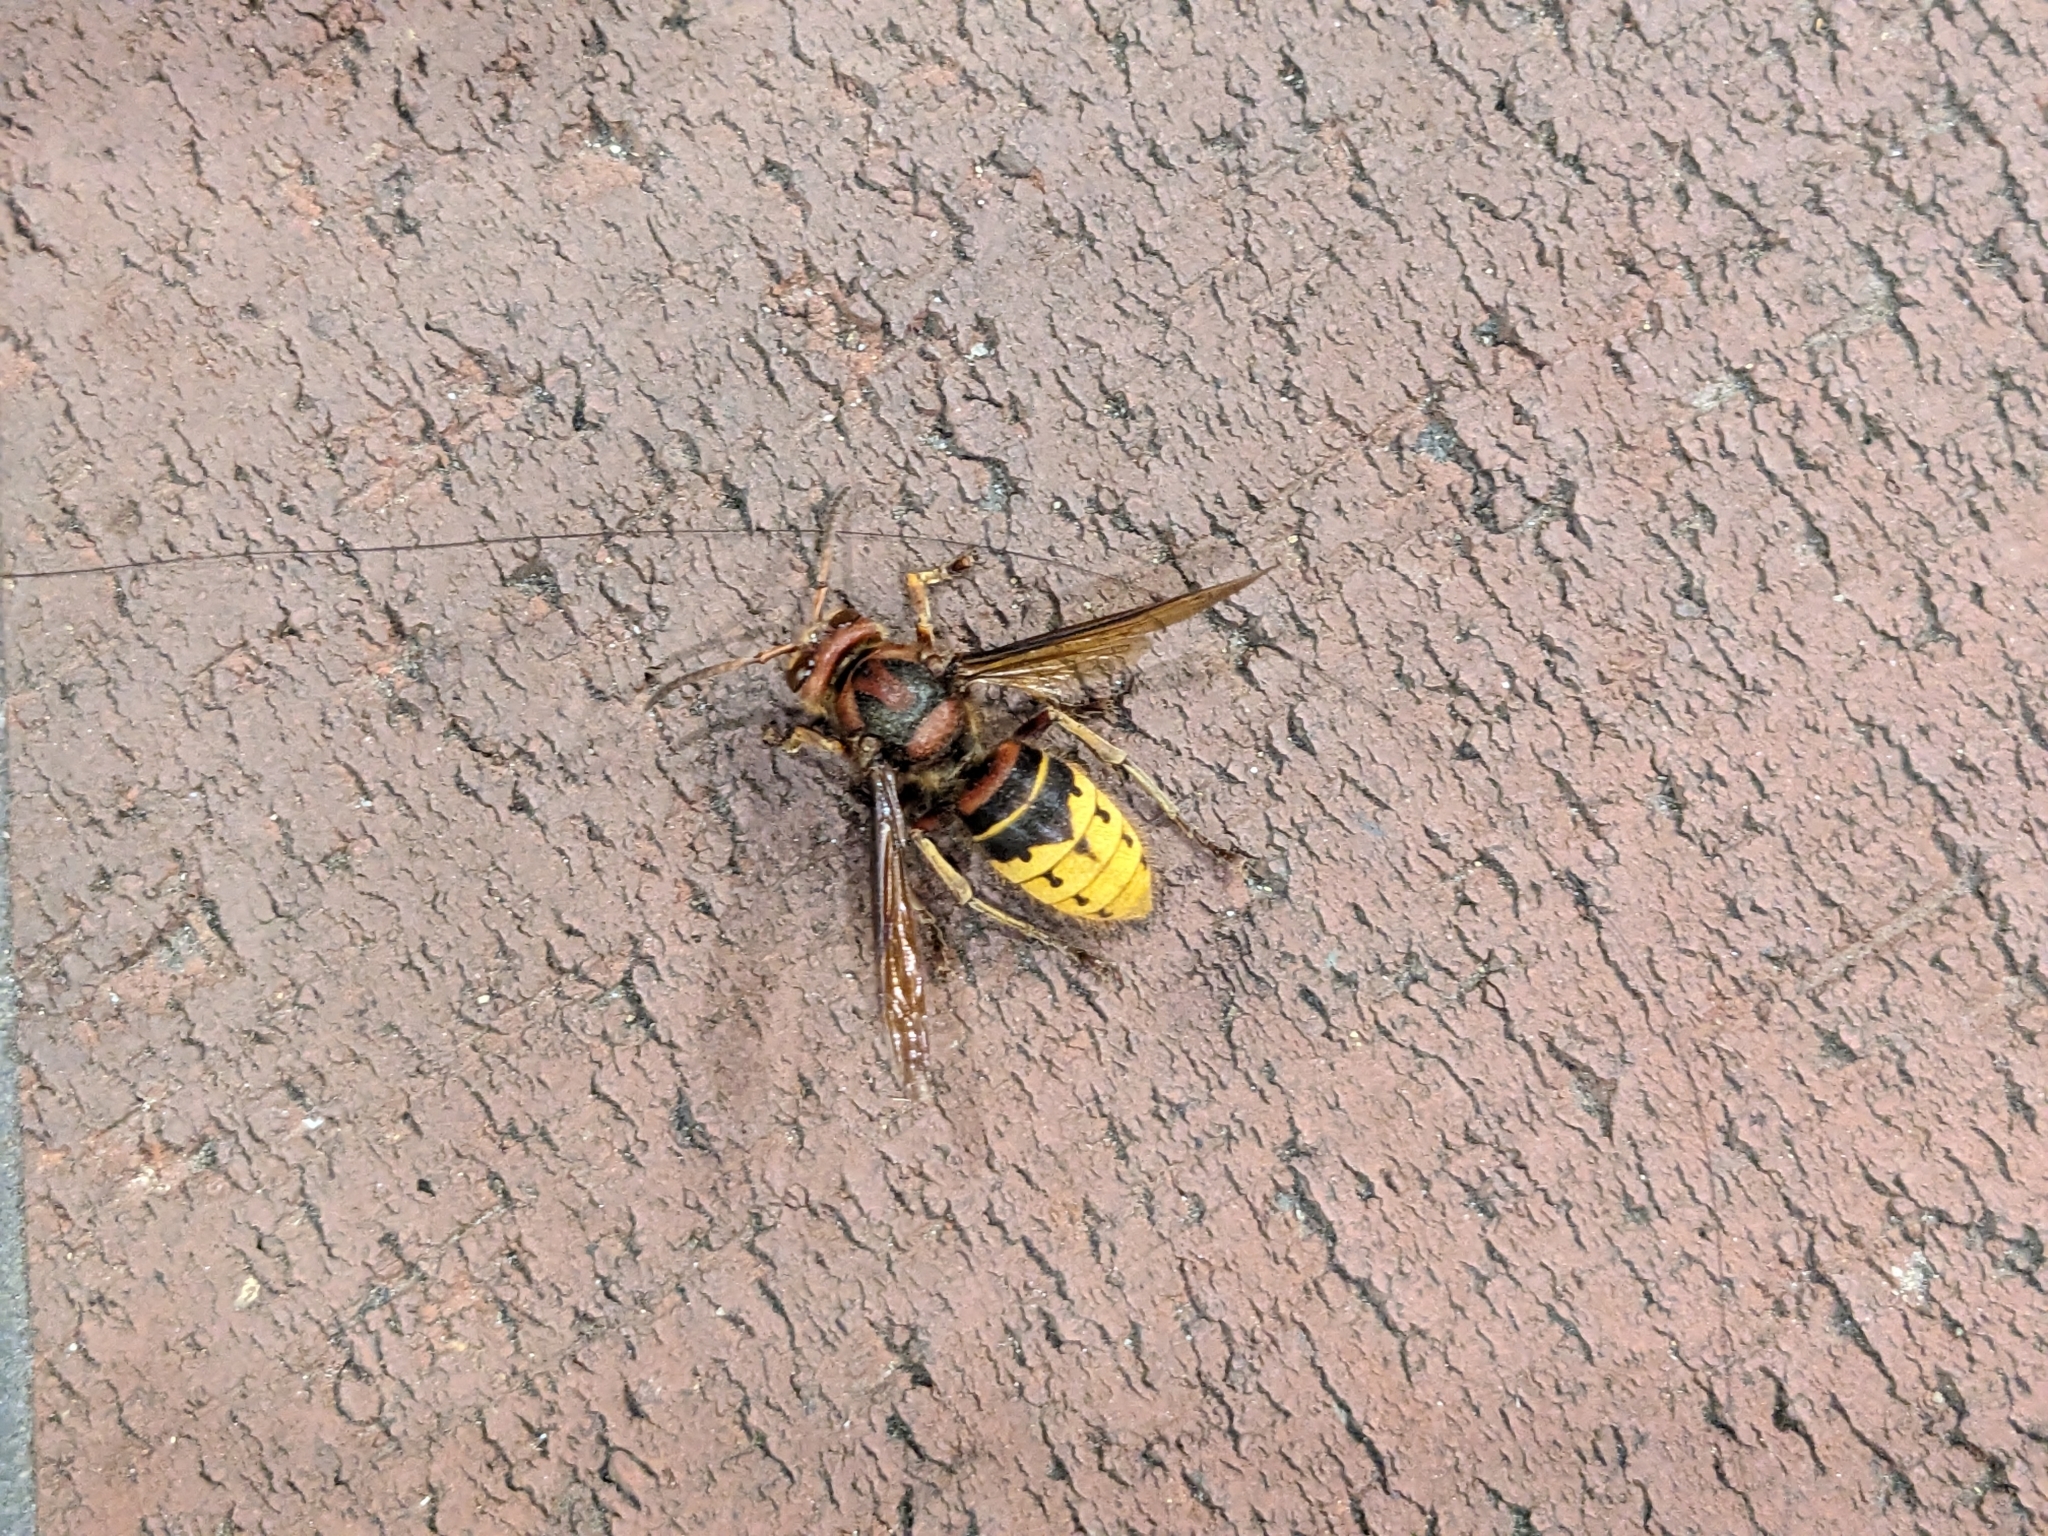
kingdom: Animalia
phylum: Arthropoda
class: Insecta
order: Hymenoptera
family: Vespidae
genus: Vespa
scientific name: Vespa crabro
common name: Hornet
